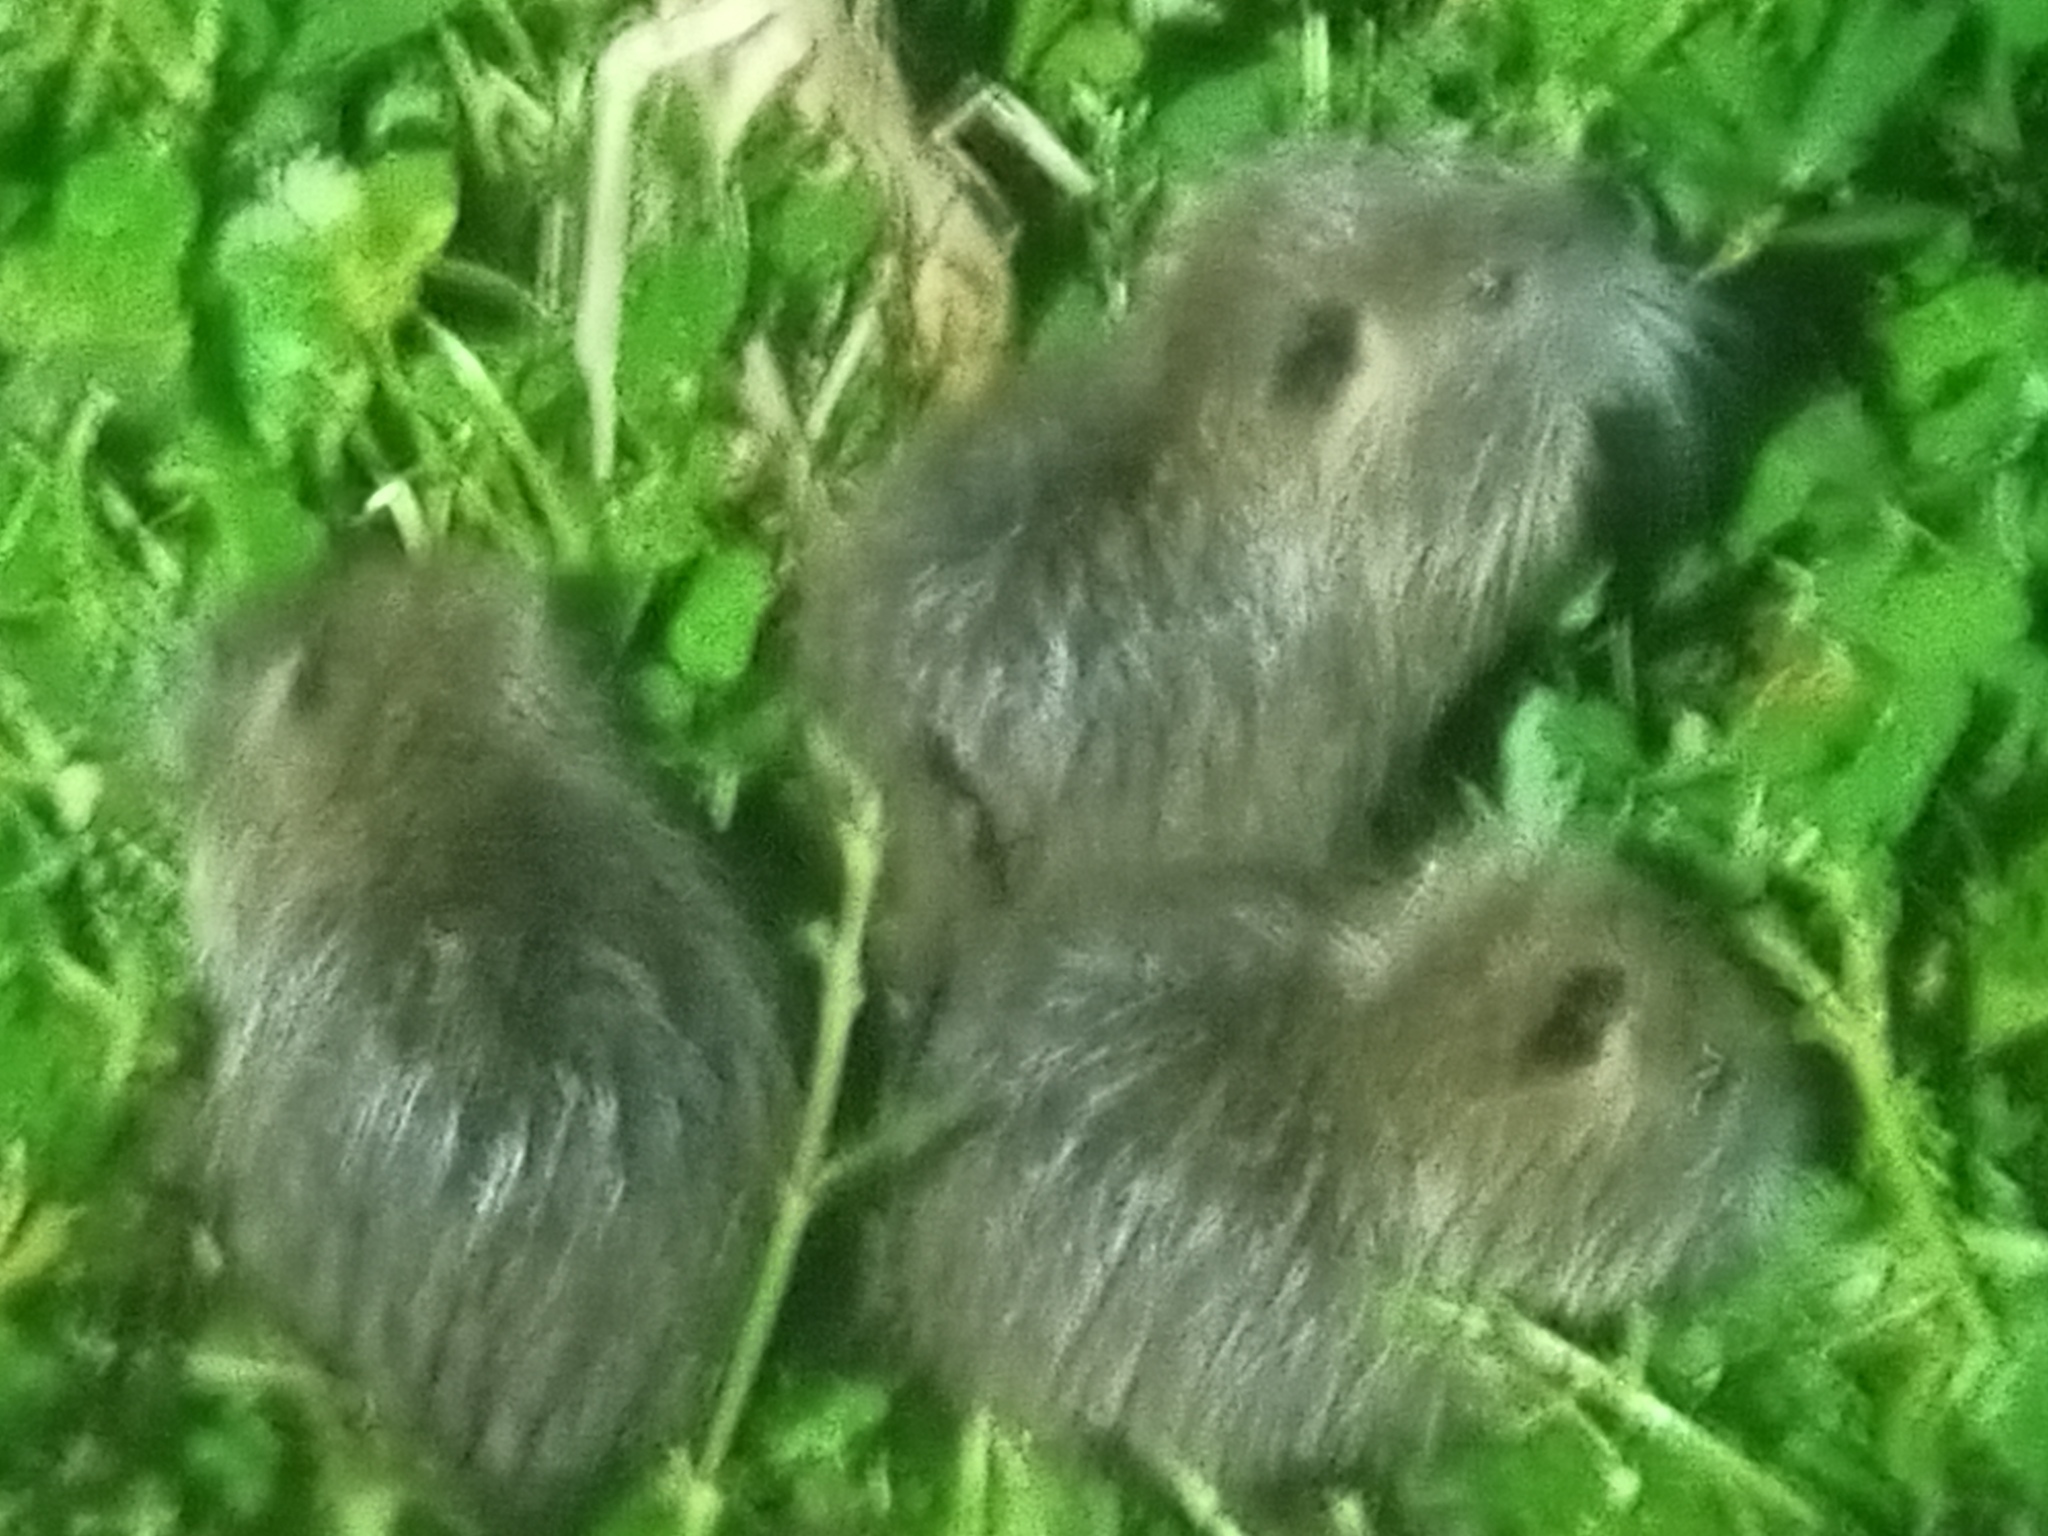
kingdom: Animalia
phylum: Chordata
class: Mammalia
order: Rodentia
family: Myocastoridae
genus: Myocastor
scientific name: Myocastor coypus
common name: Coypu
